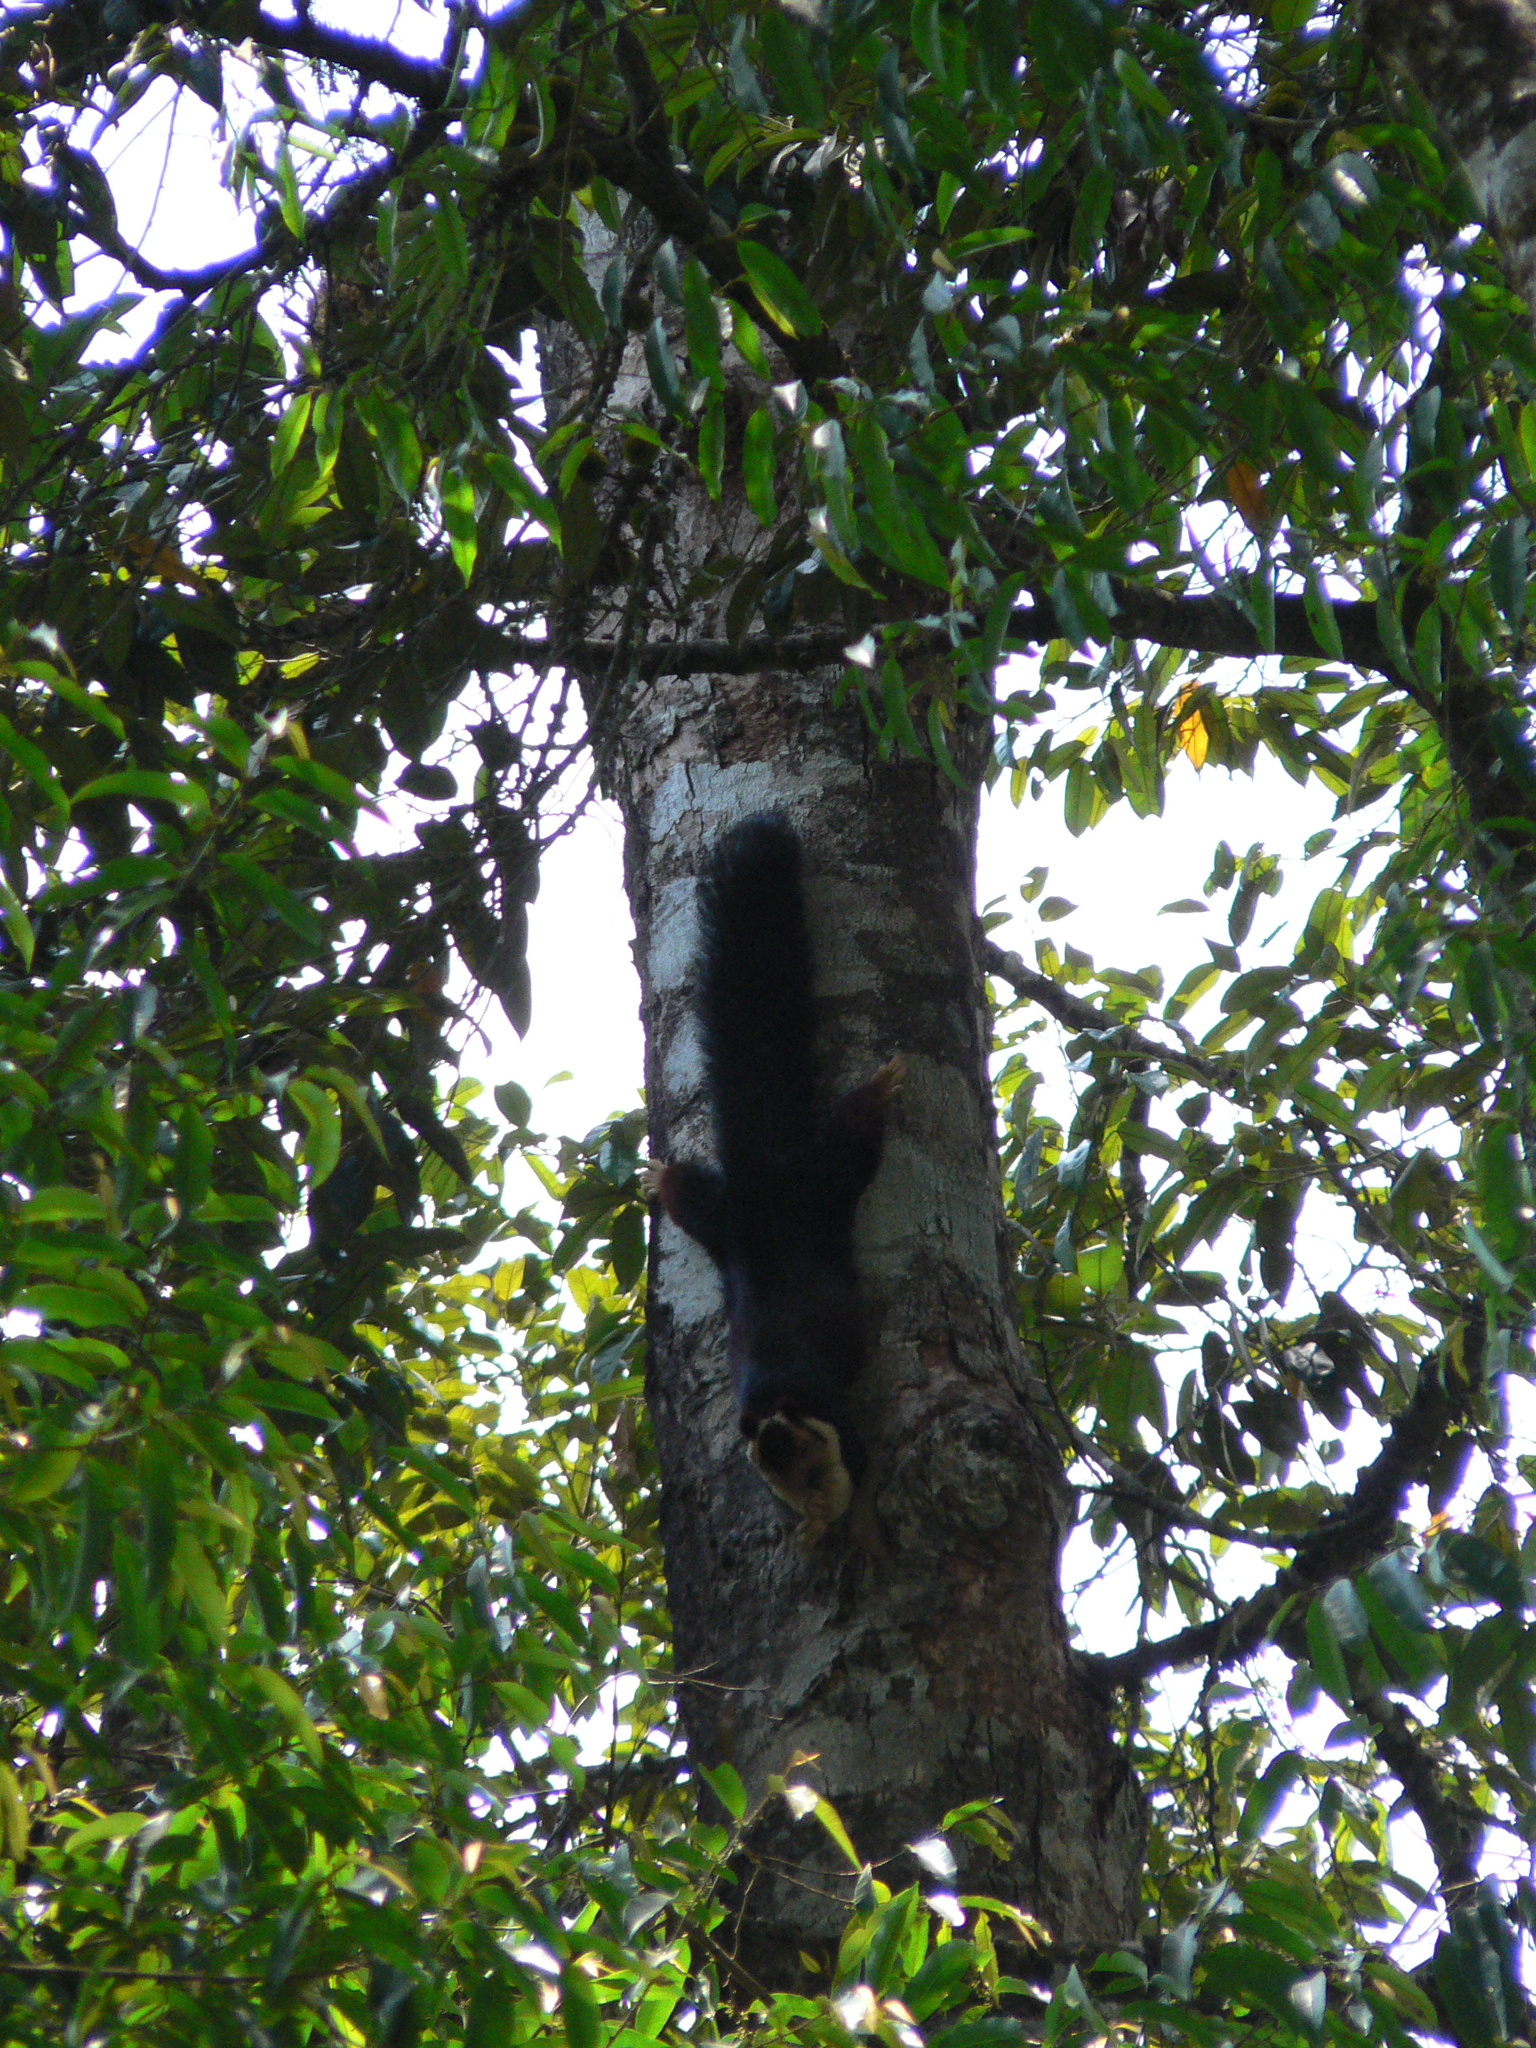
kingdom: Animalia
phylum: Chordata
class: Mammalia
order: Rodentia
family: Sciuridae
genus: Ratufa
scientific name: Ratufa indica
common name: Indian giant squirrel
